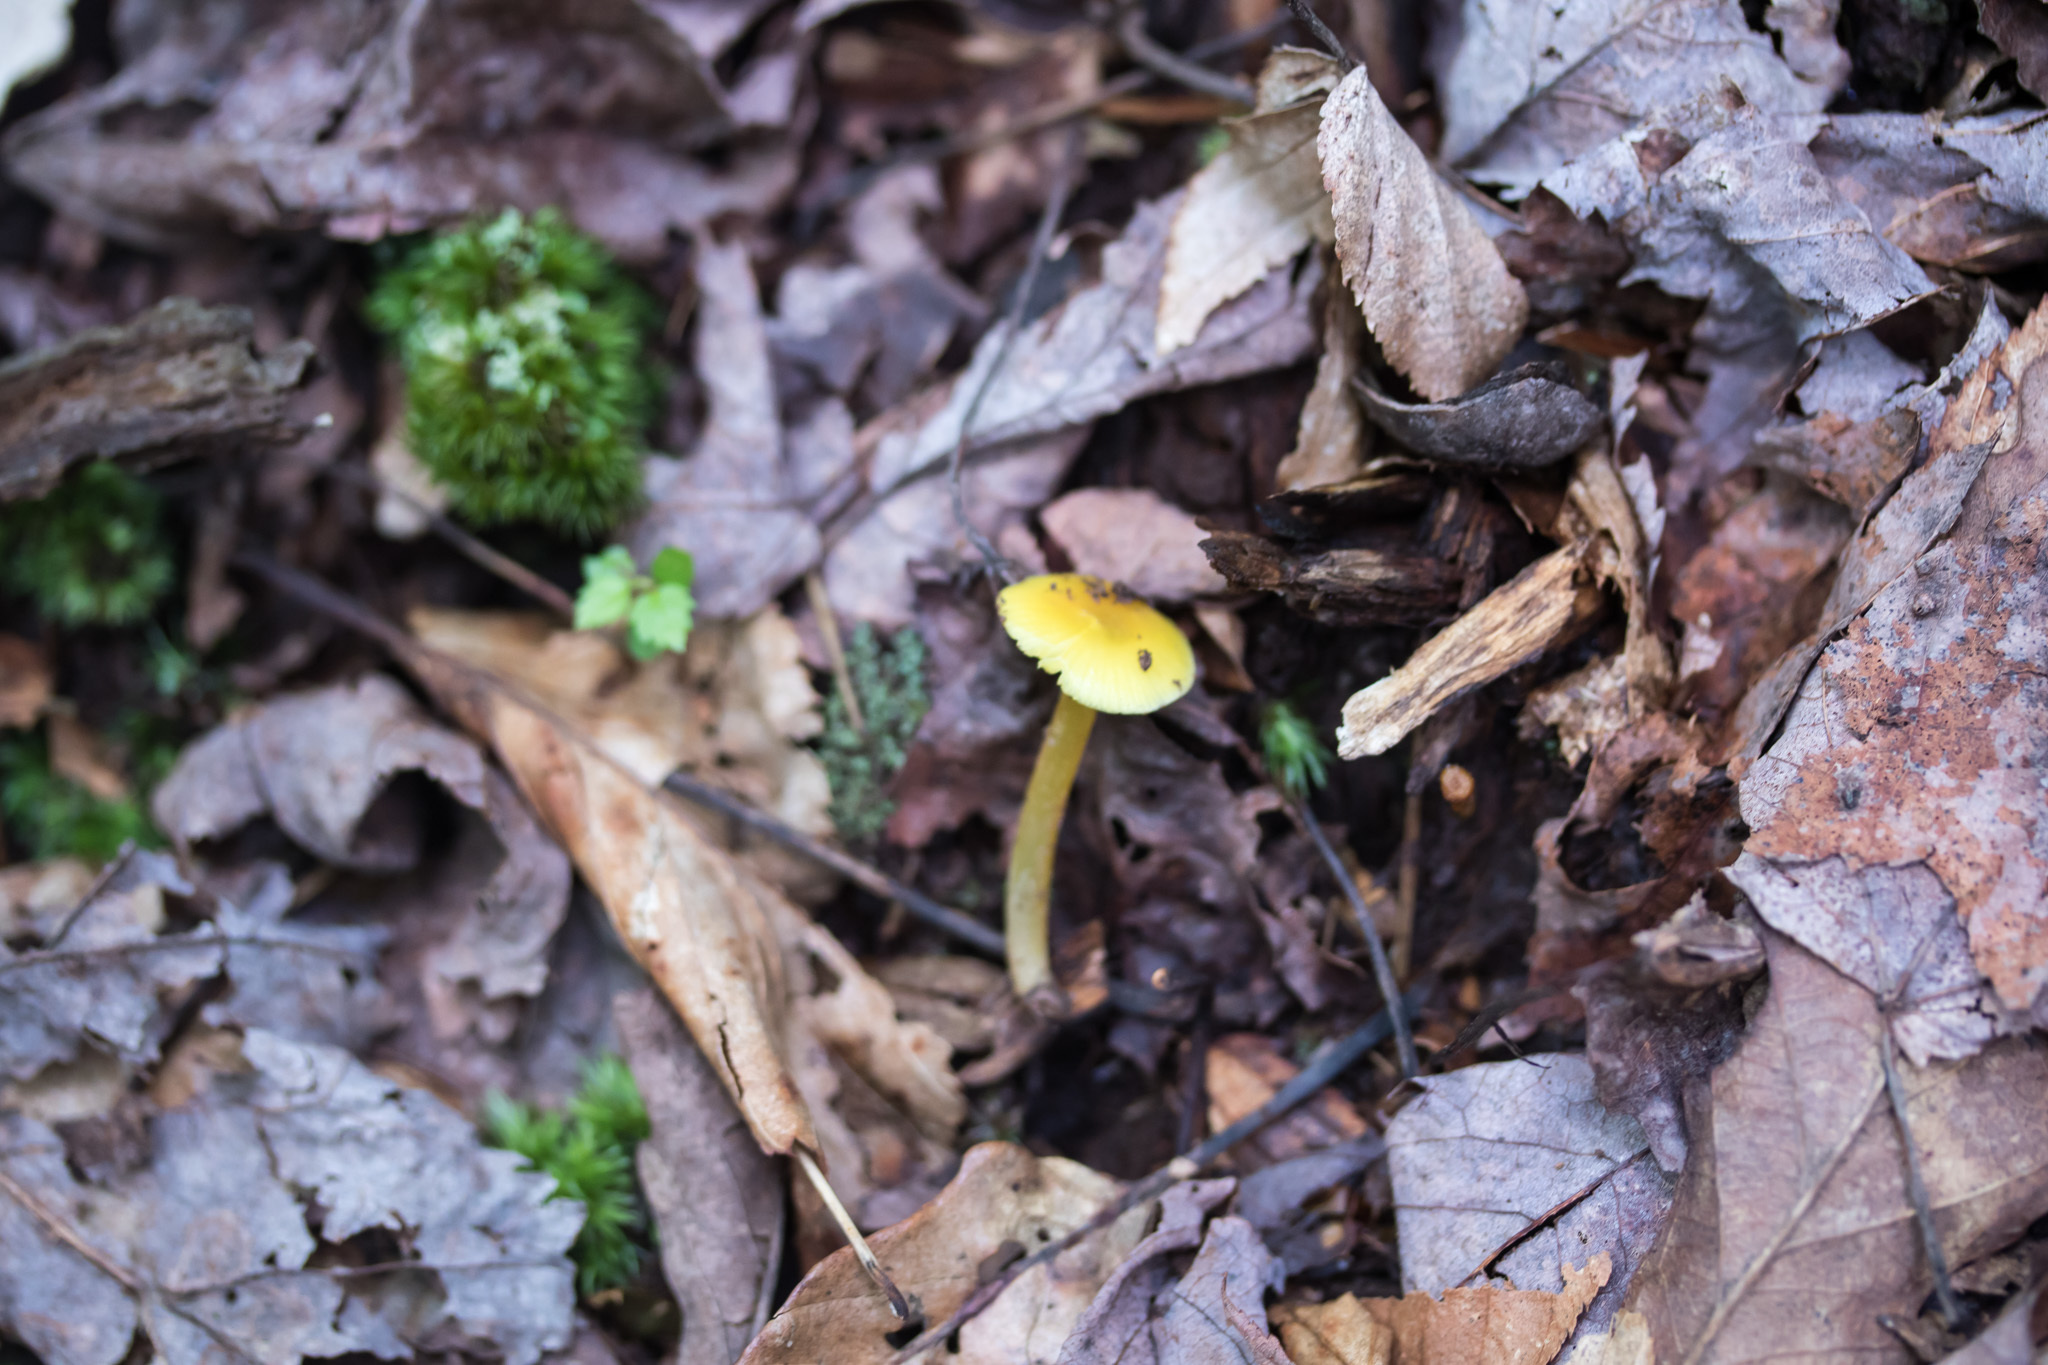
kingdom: Fungi
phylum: Basidiomycota
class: Agaricomycetes
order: Agaricales
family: Hygrophoraceae
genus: Hygrocybe
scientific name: Hygrocybe flavescens
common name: Golden waxy cap
